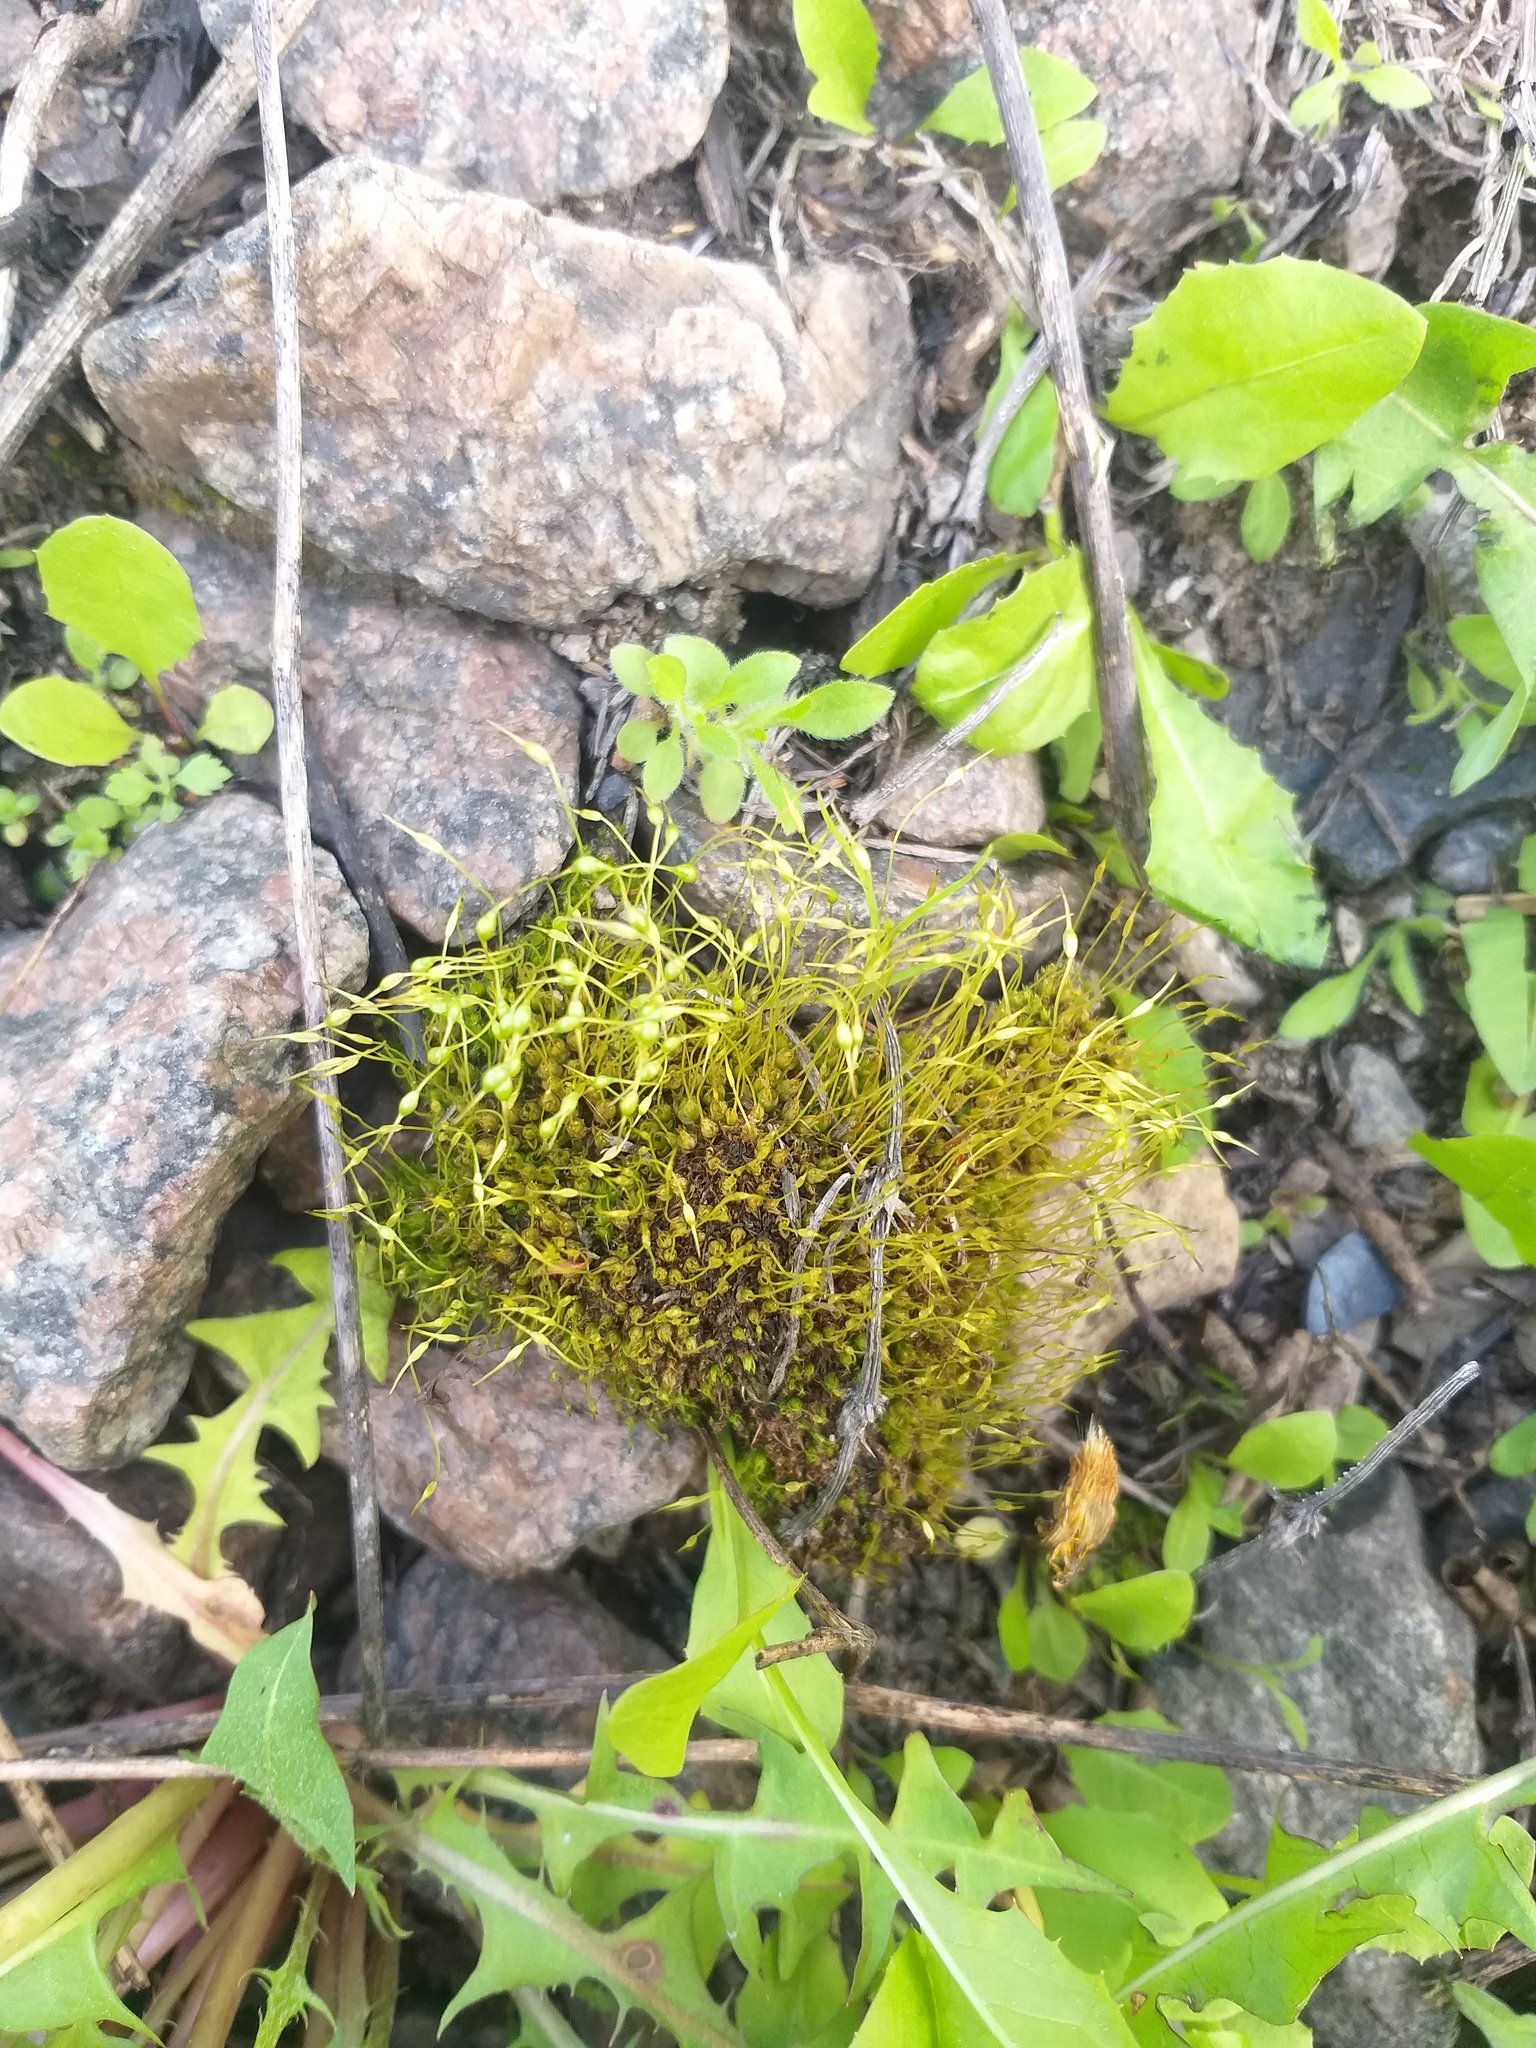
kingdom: Plantae
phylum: Bryophyta
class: Bryopsida
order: Funariales
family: Funariaceae
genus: Funaria
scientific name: Funaria hygrometrica
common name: Common cord moss
